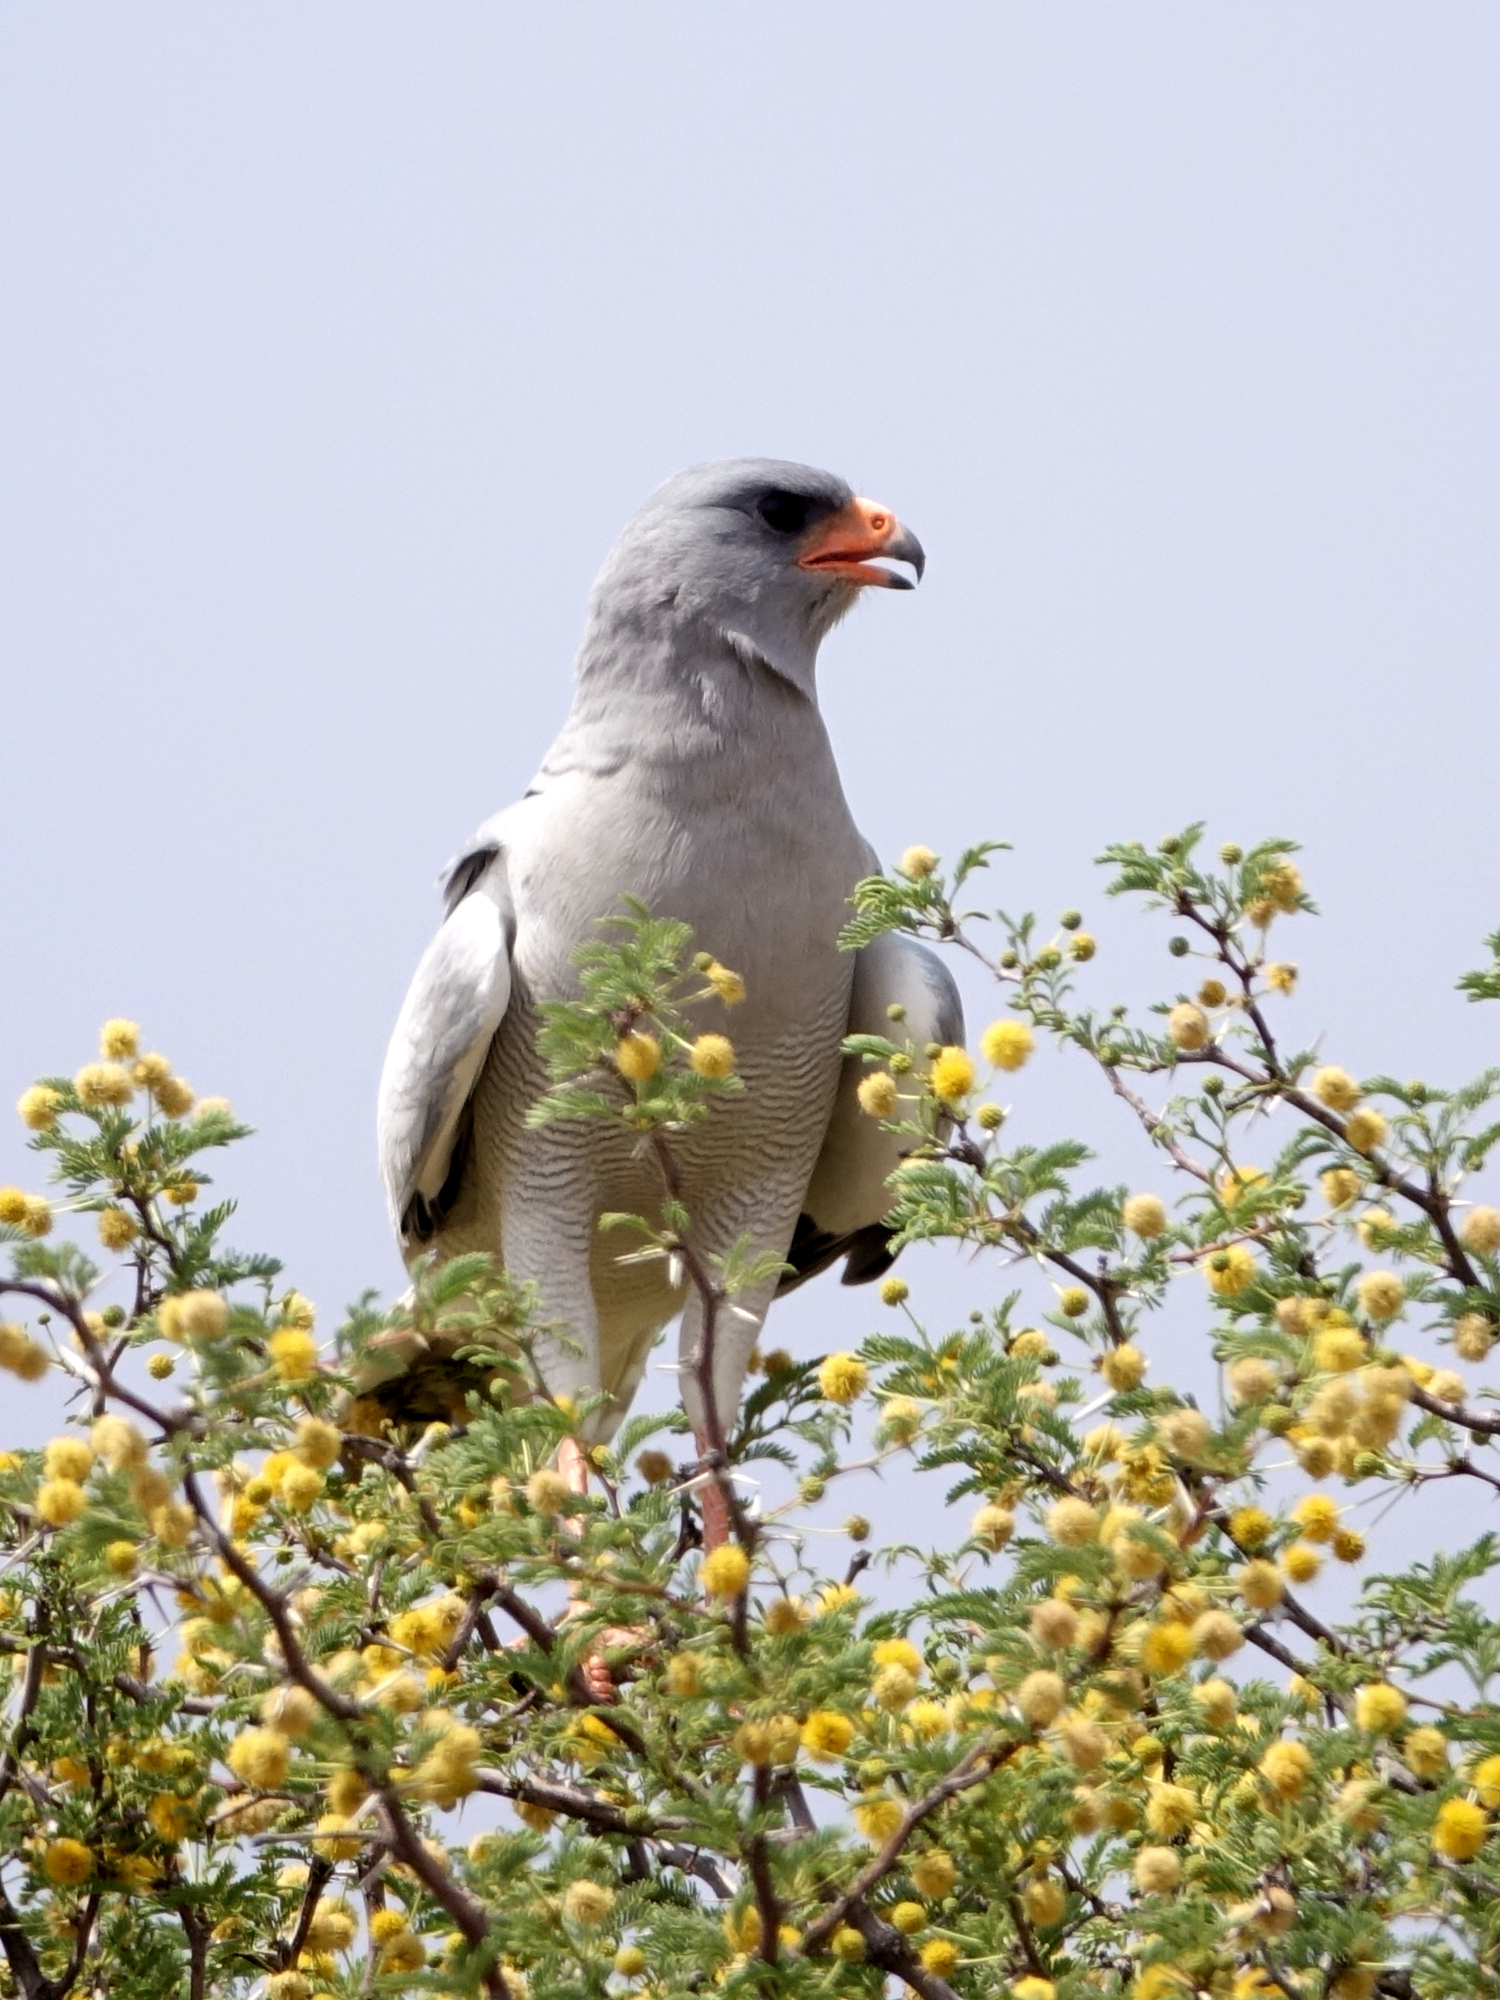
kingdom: Animalia
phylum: Chordata
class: Aves
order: Accipitriformes
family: Accipitridae
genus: Melierax
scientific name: Melierax canorus
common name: Pale chanting-goshawk
